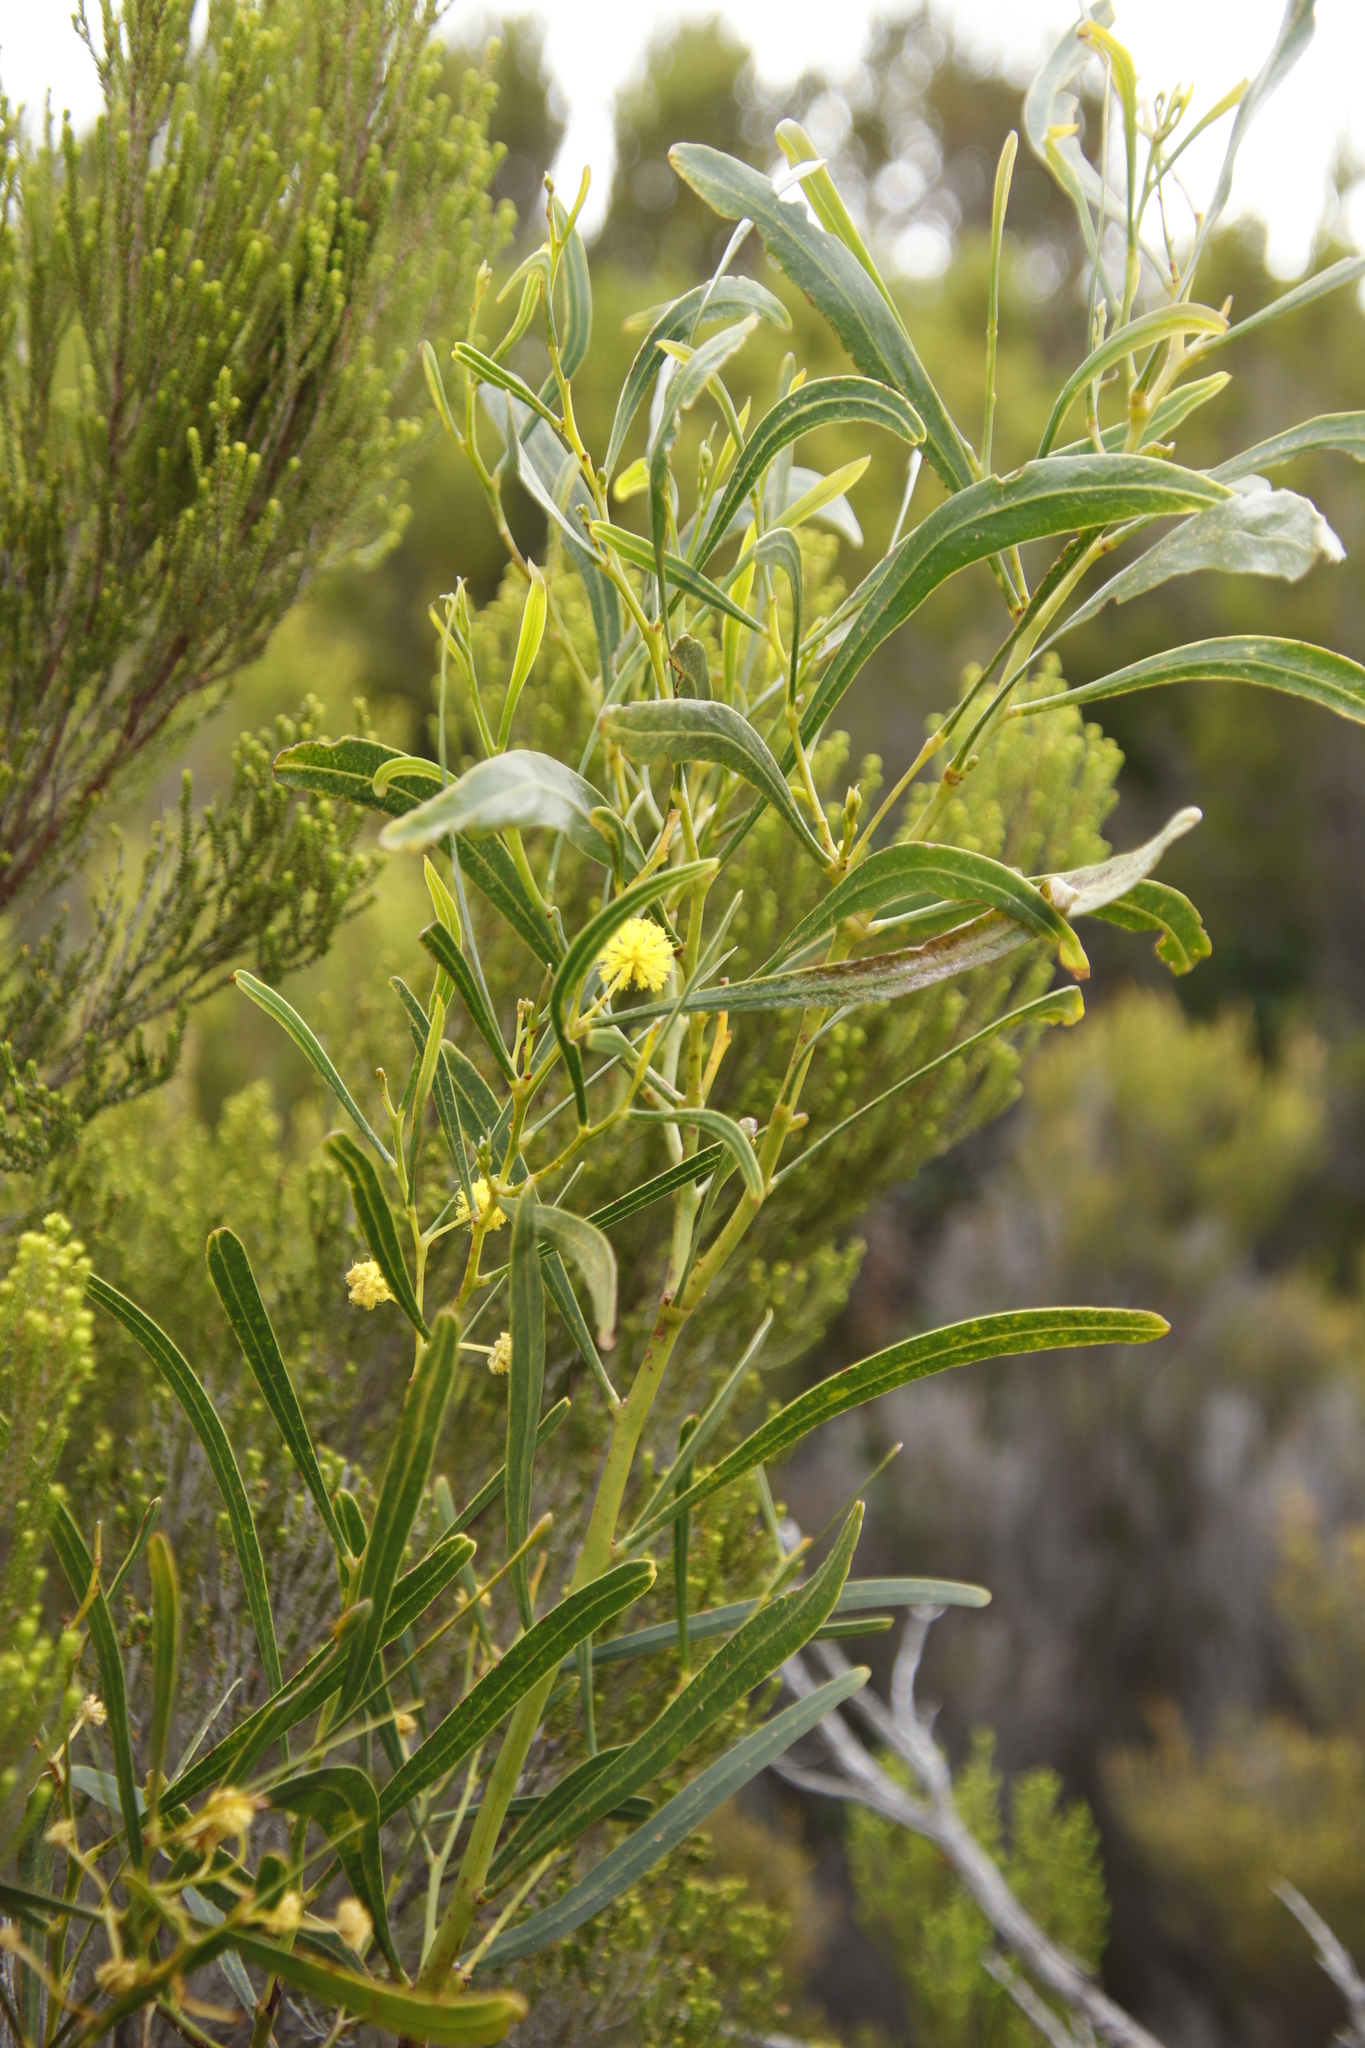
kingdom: Plantae
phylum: Tracheophyta
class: Magnoliopsida
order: Fabales
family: Fabaceae
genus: Acacia
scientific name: Acacia saligna
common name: Orange wattle
